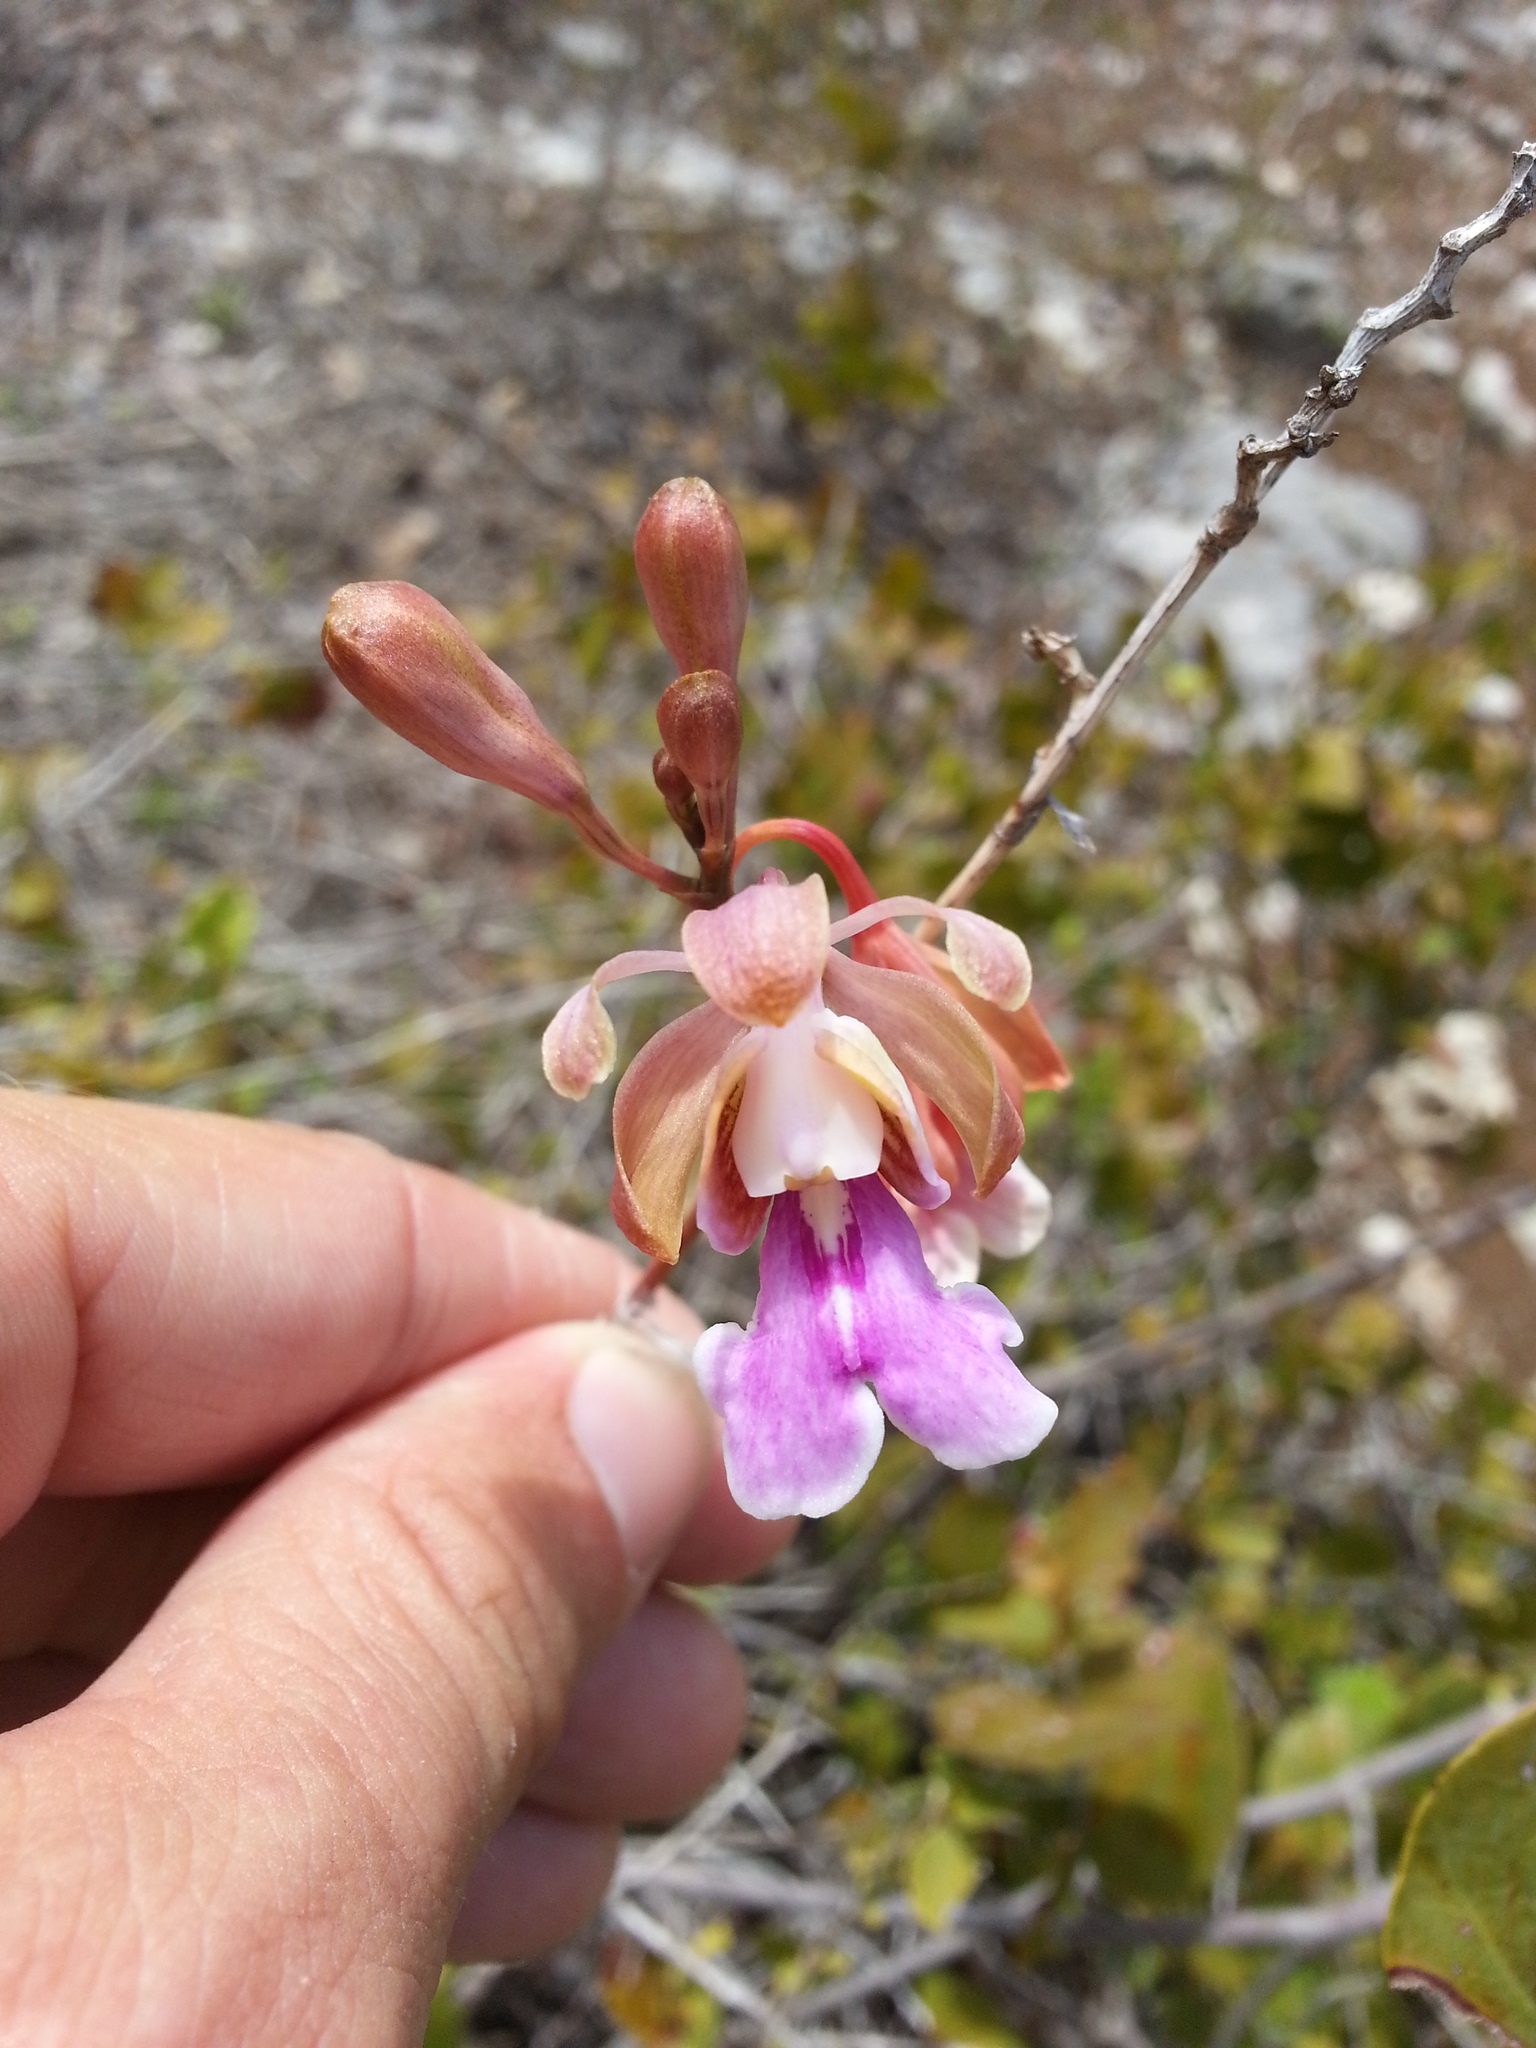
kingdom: Plantae
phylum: Tracheophyta
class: Liliopsida
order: Asparagales
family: Orchidaceae
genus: Psychilis
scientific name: Psychilis macconnelliae
